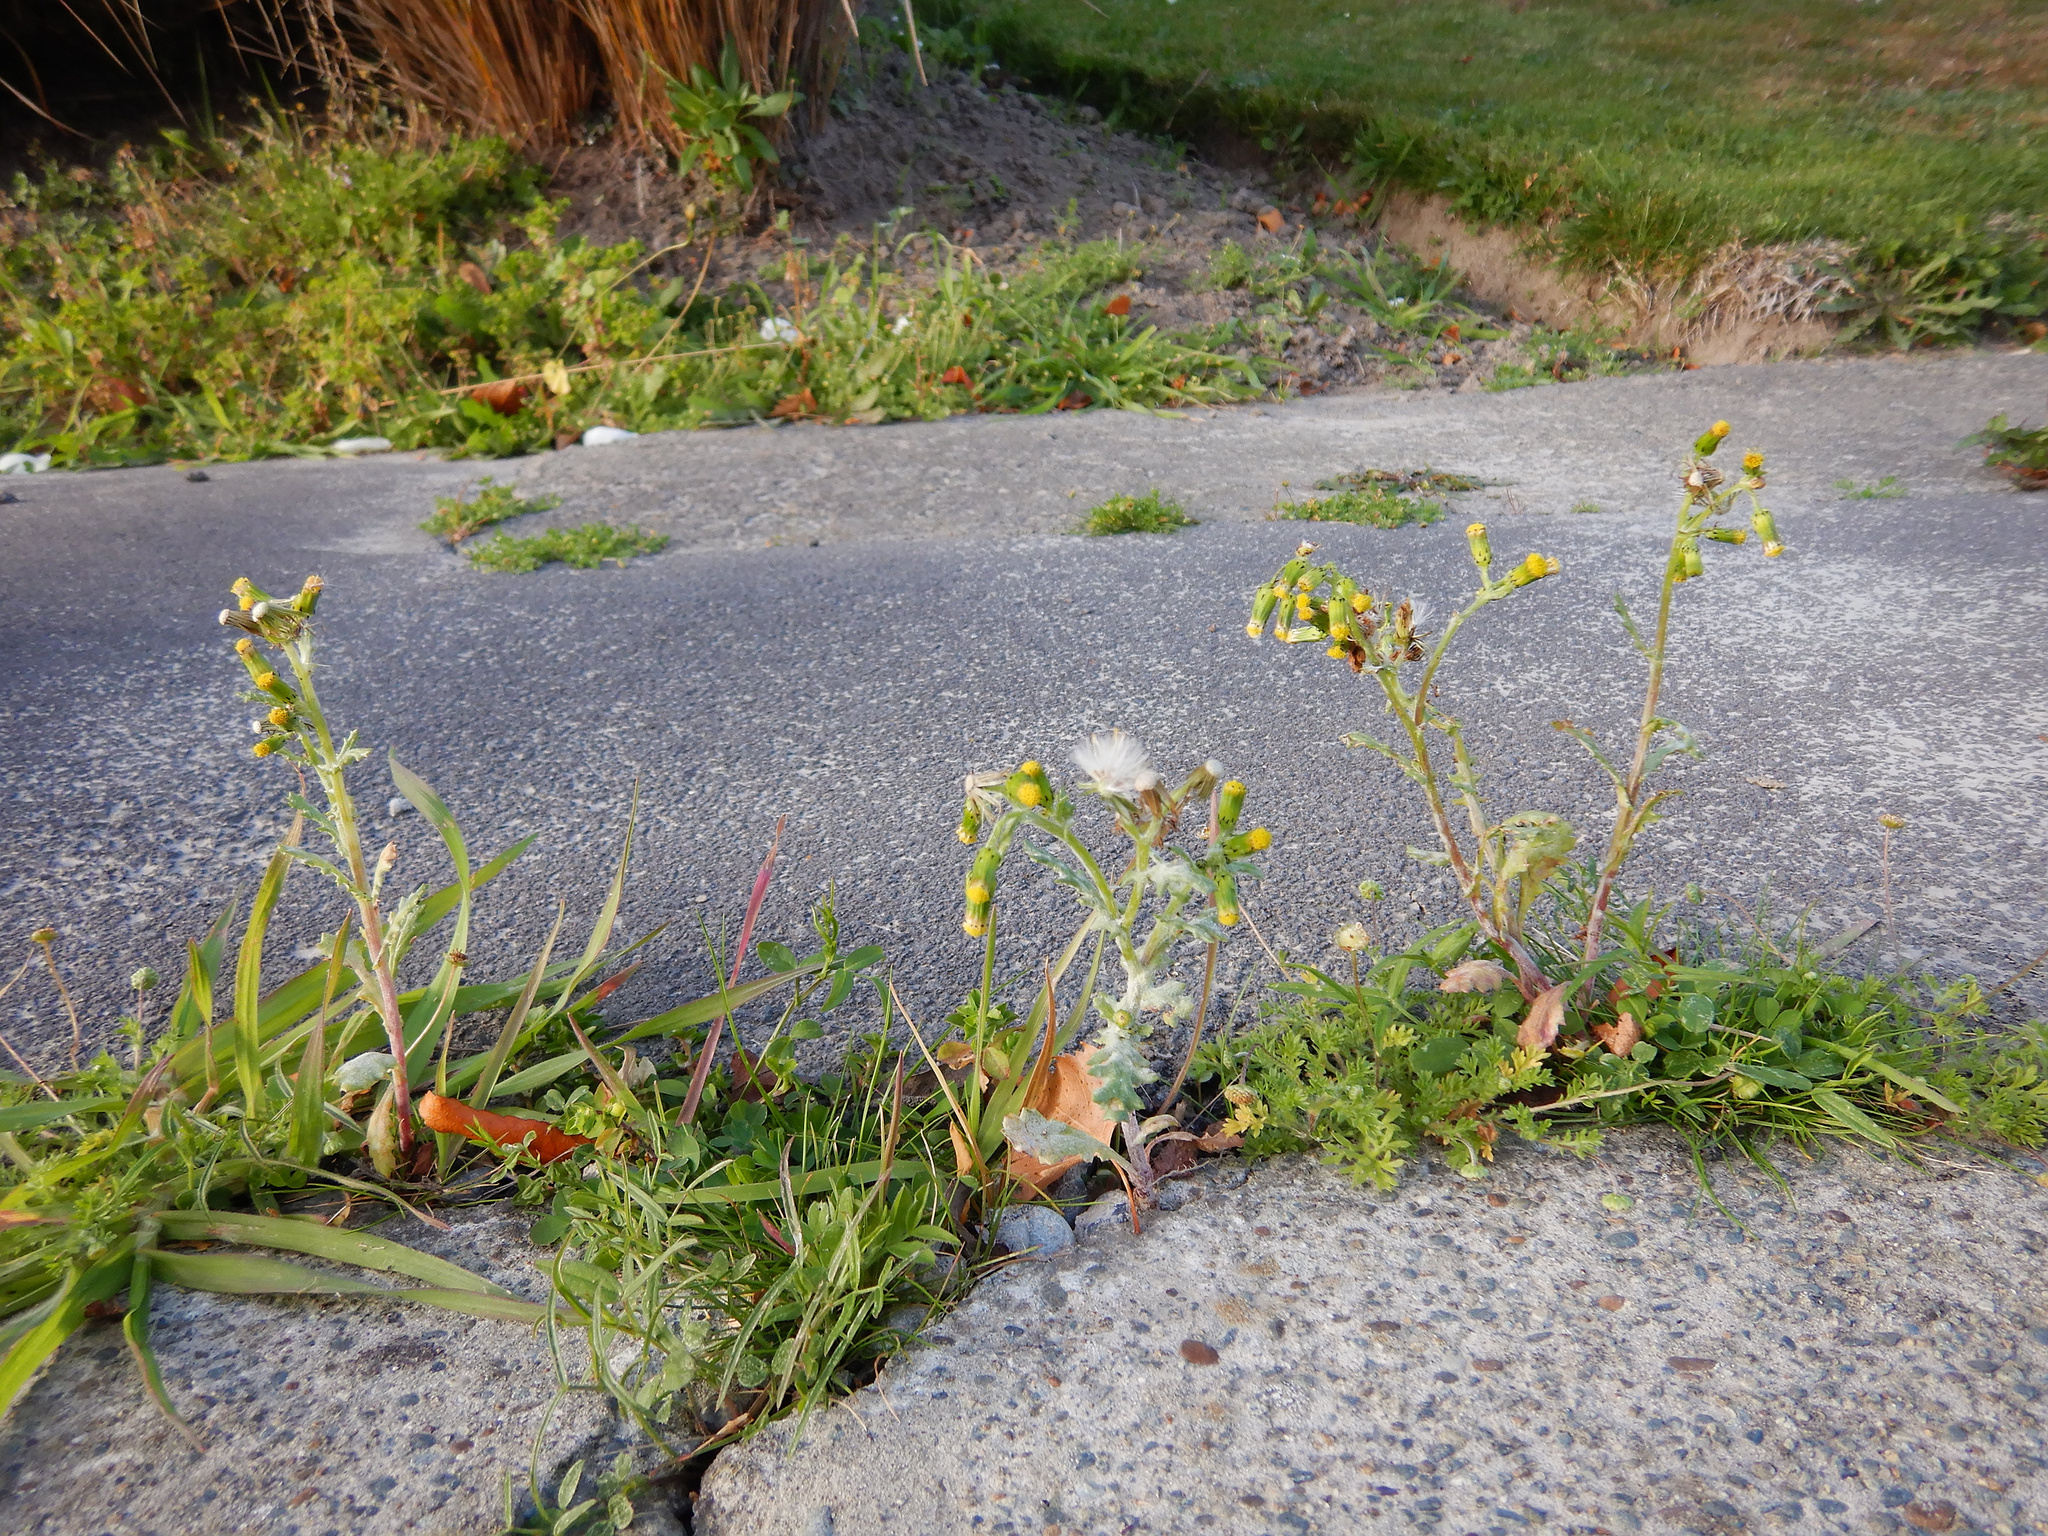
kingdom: Plantae
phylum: Tracheophyta
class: Magnoliopsida
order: Asterales
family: Asteraceae
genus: Senecio
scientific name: Senecio vulgaris
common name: Old-man-in-the-spring
